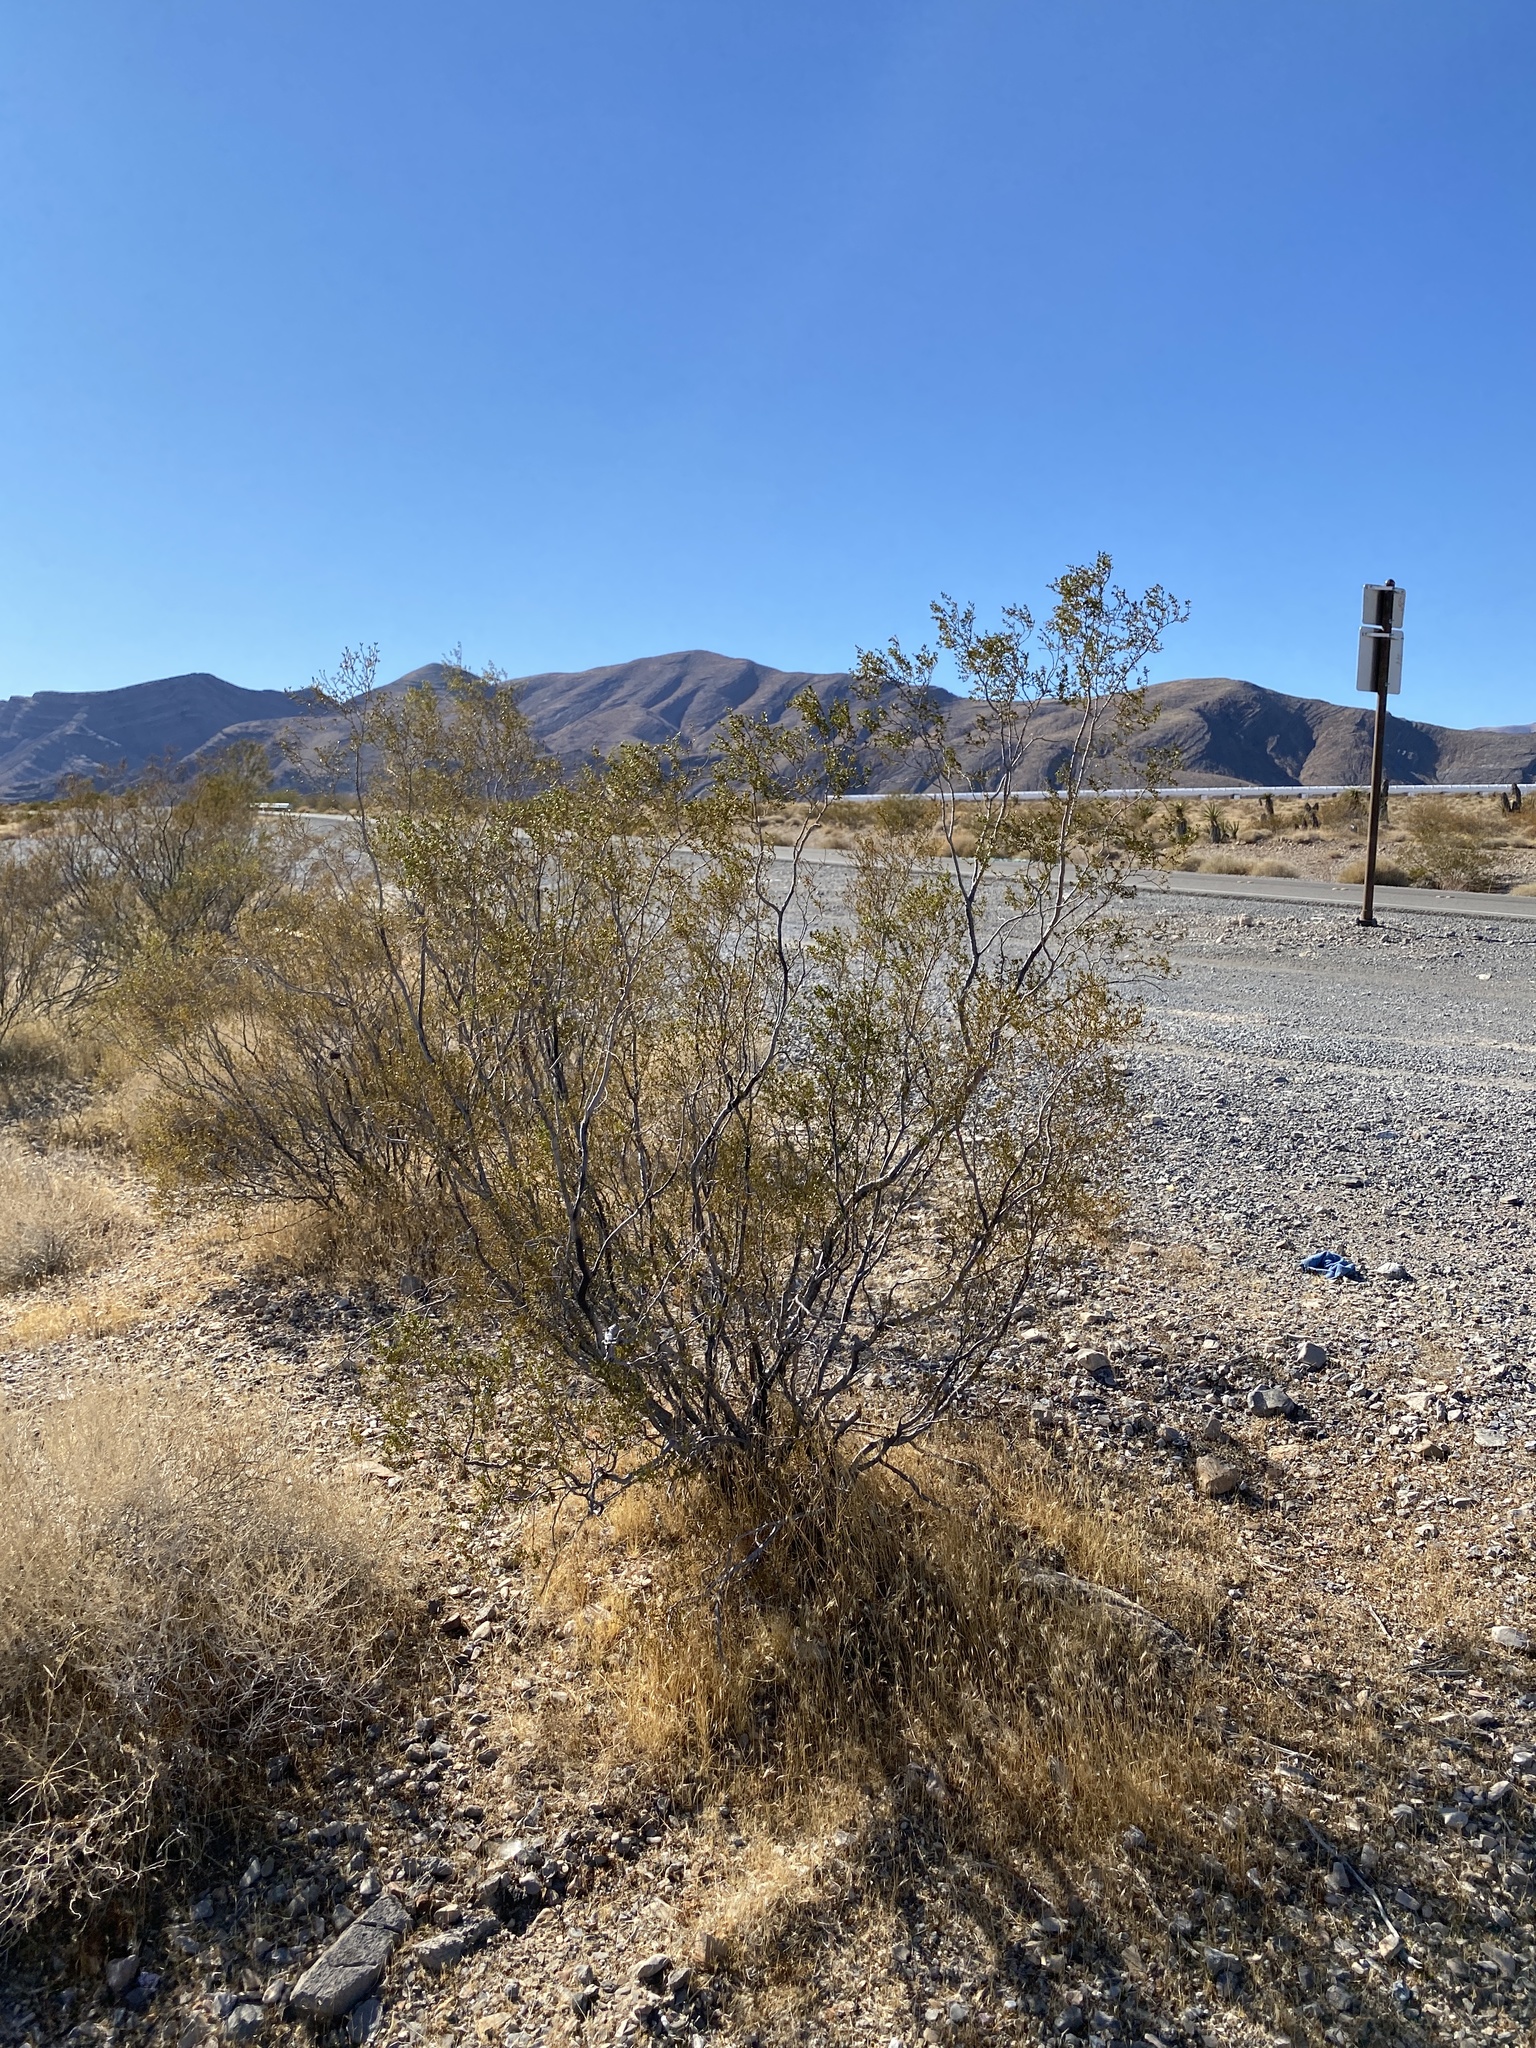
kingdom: Plantae
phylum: Tracheophyta
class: Magnoliopsida
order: Zygophyllales
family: Zygophyllaceae
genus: Larrea
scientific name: Larrea tridentata
